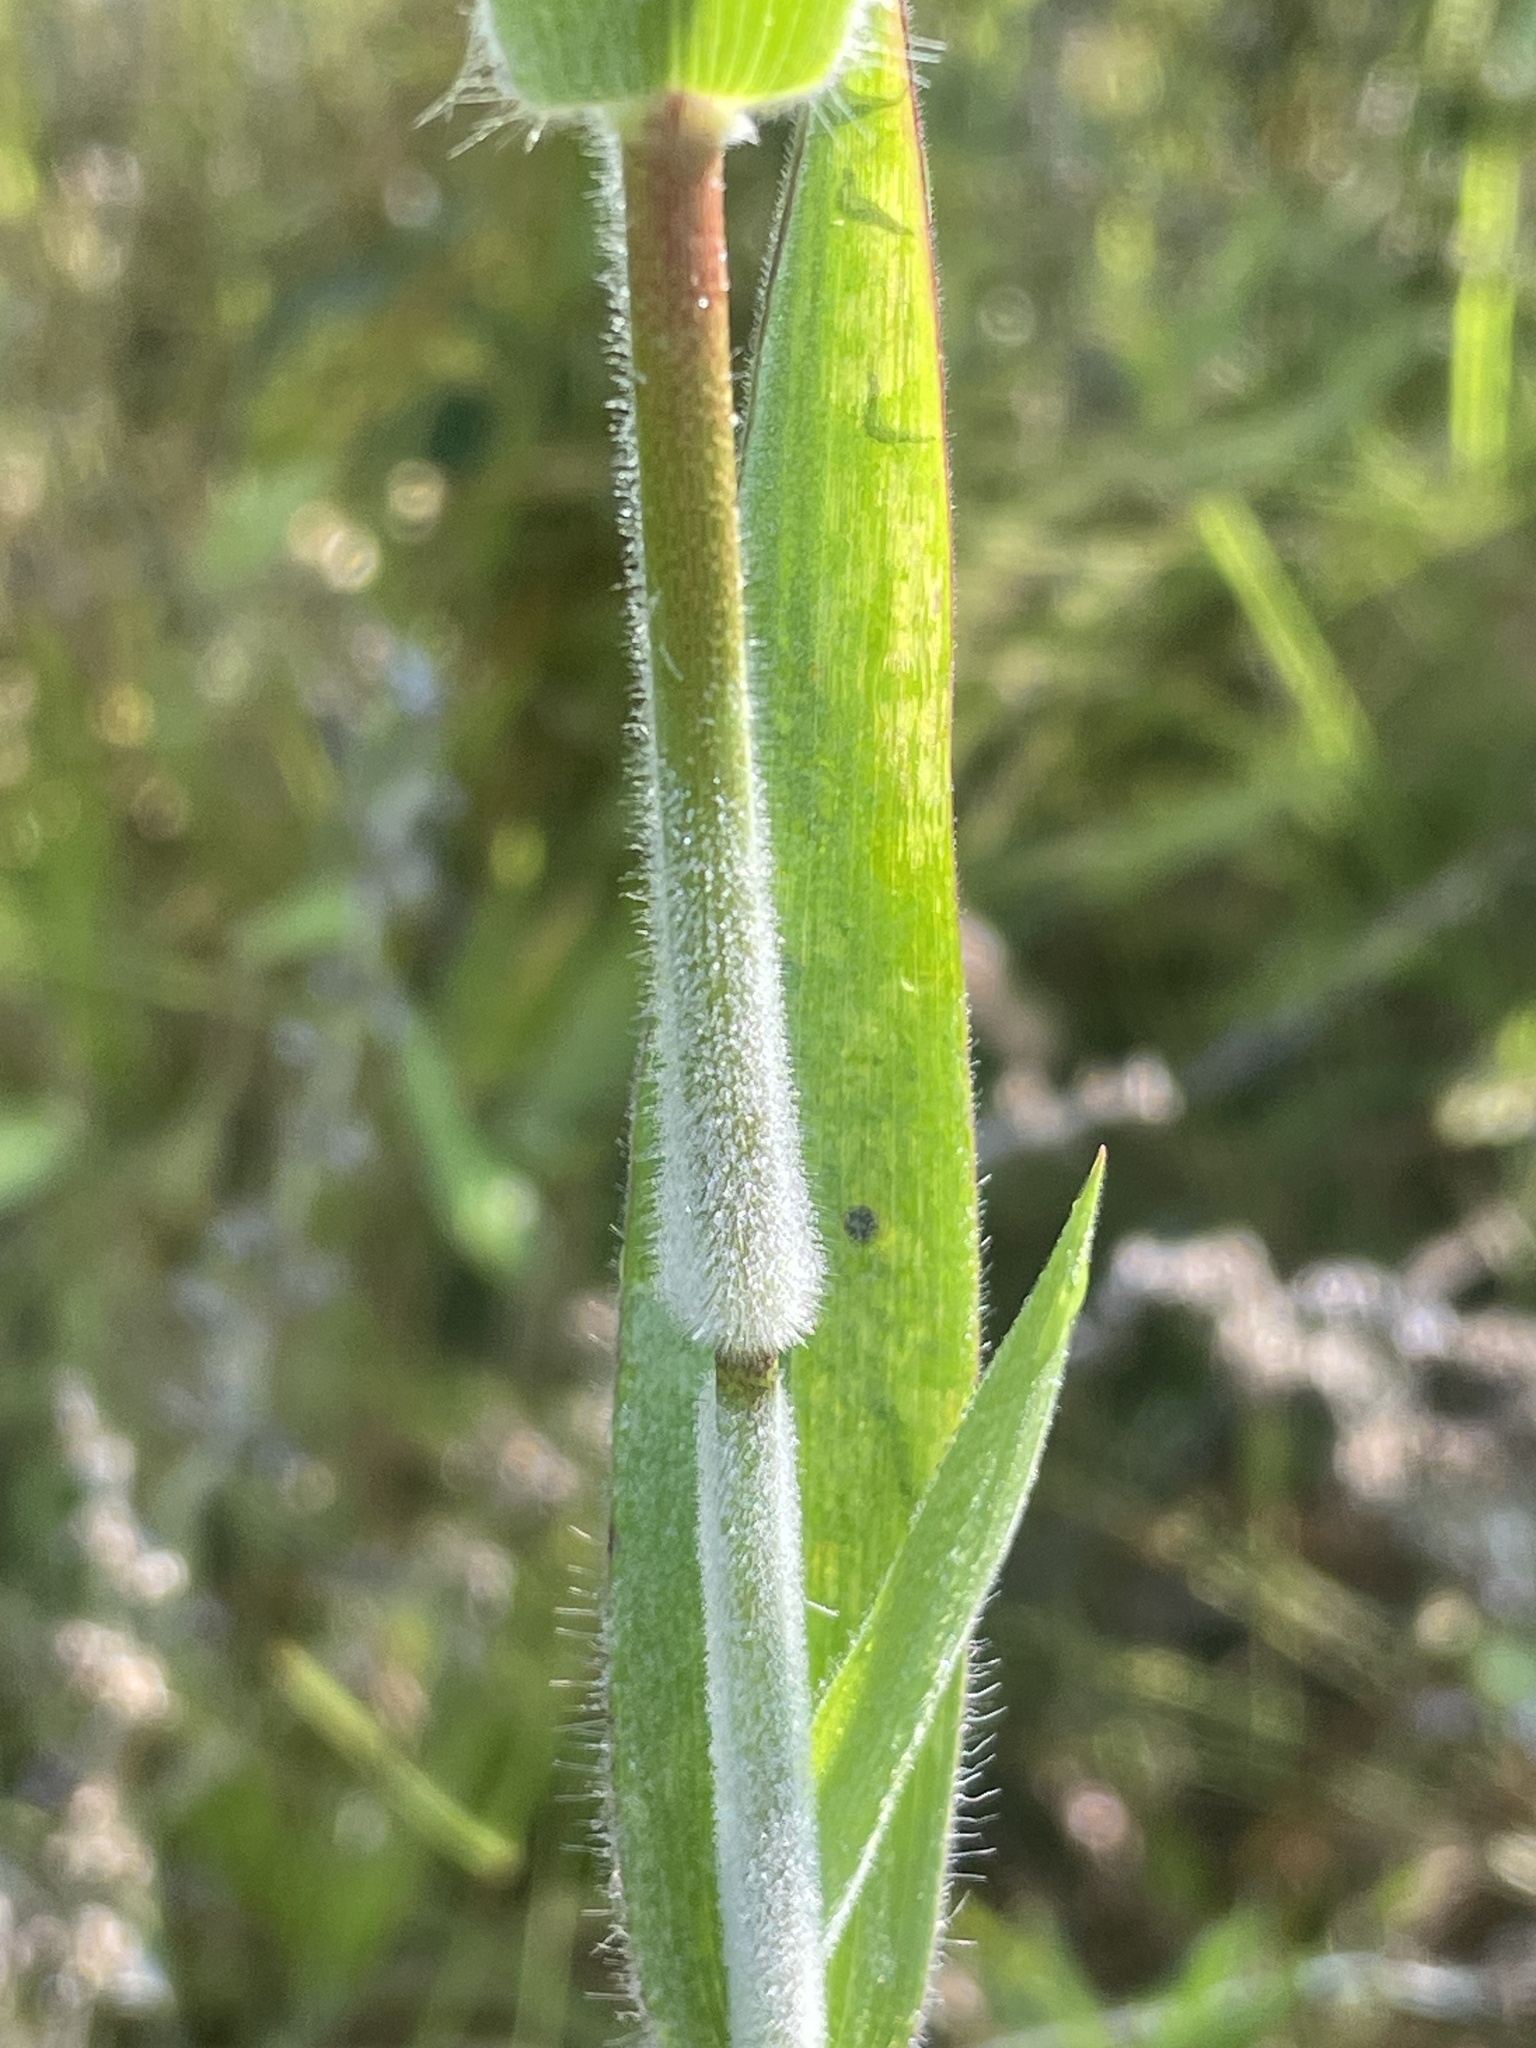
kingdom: Plantae
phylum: Tracheophyta
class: Liliopsida
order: Poales
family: Poaceae
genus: Dichanthelium
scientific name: Dichanthelium scoparium
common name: Velvety panic grass
